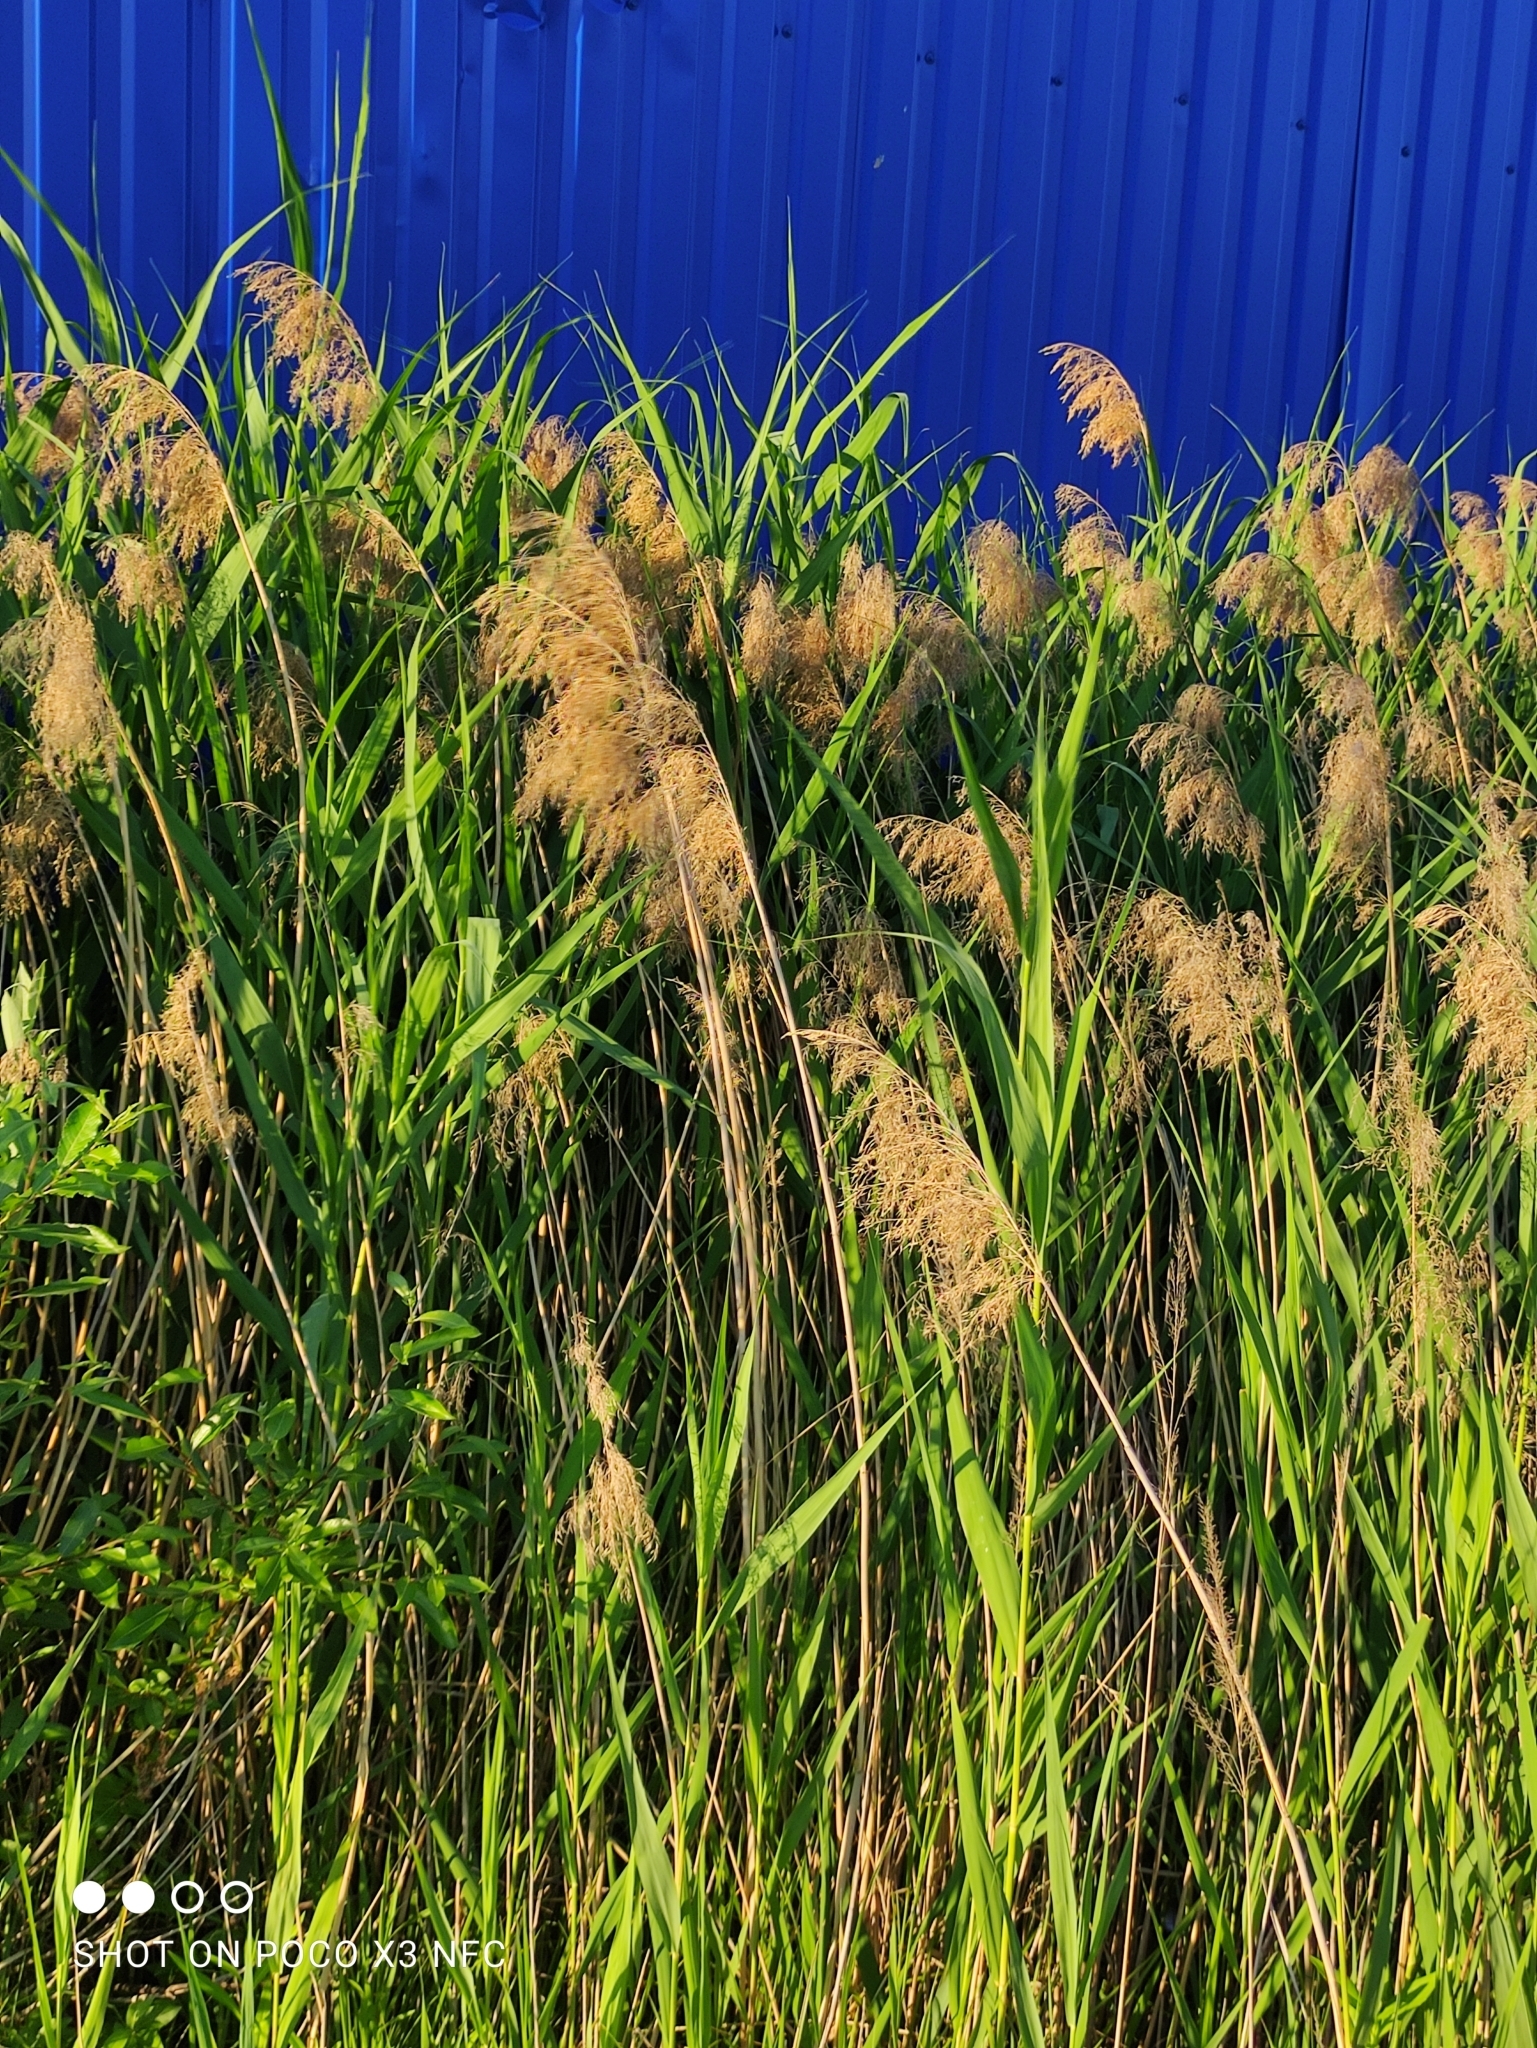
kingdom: Plantae
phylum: Tracheophyta
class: Liliopsida
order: Poales
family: Poaceae
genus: Phragmites
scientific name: Phragmites australis
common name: Common reed
